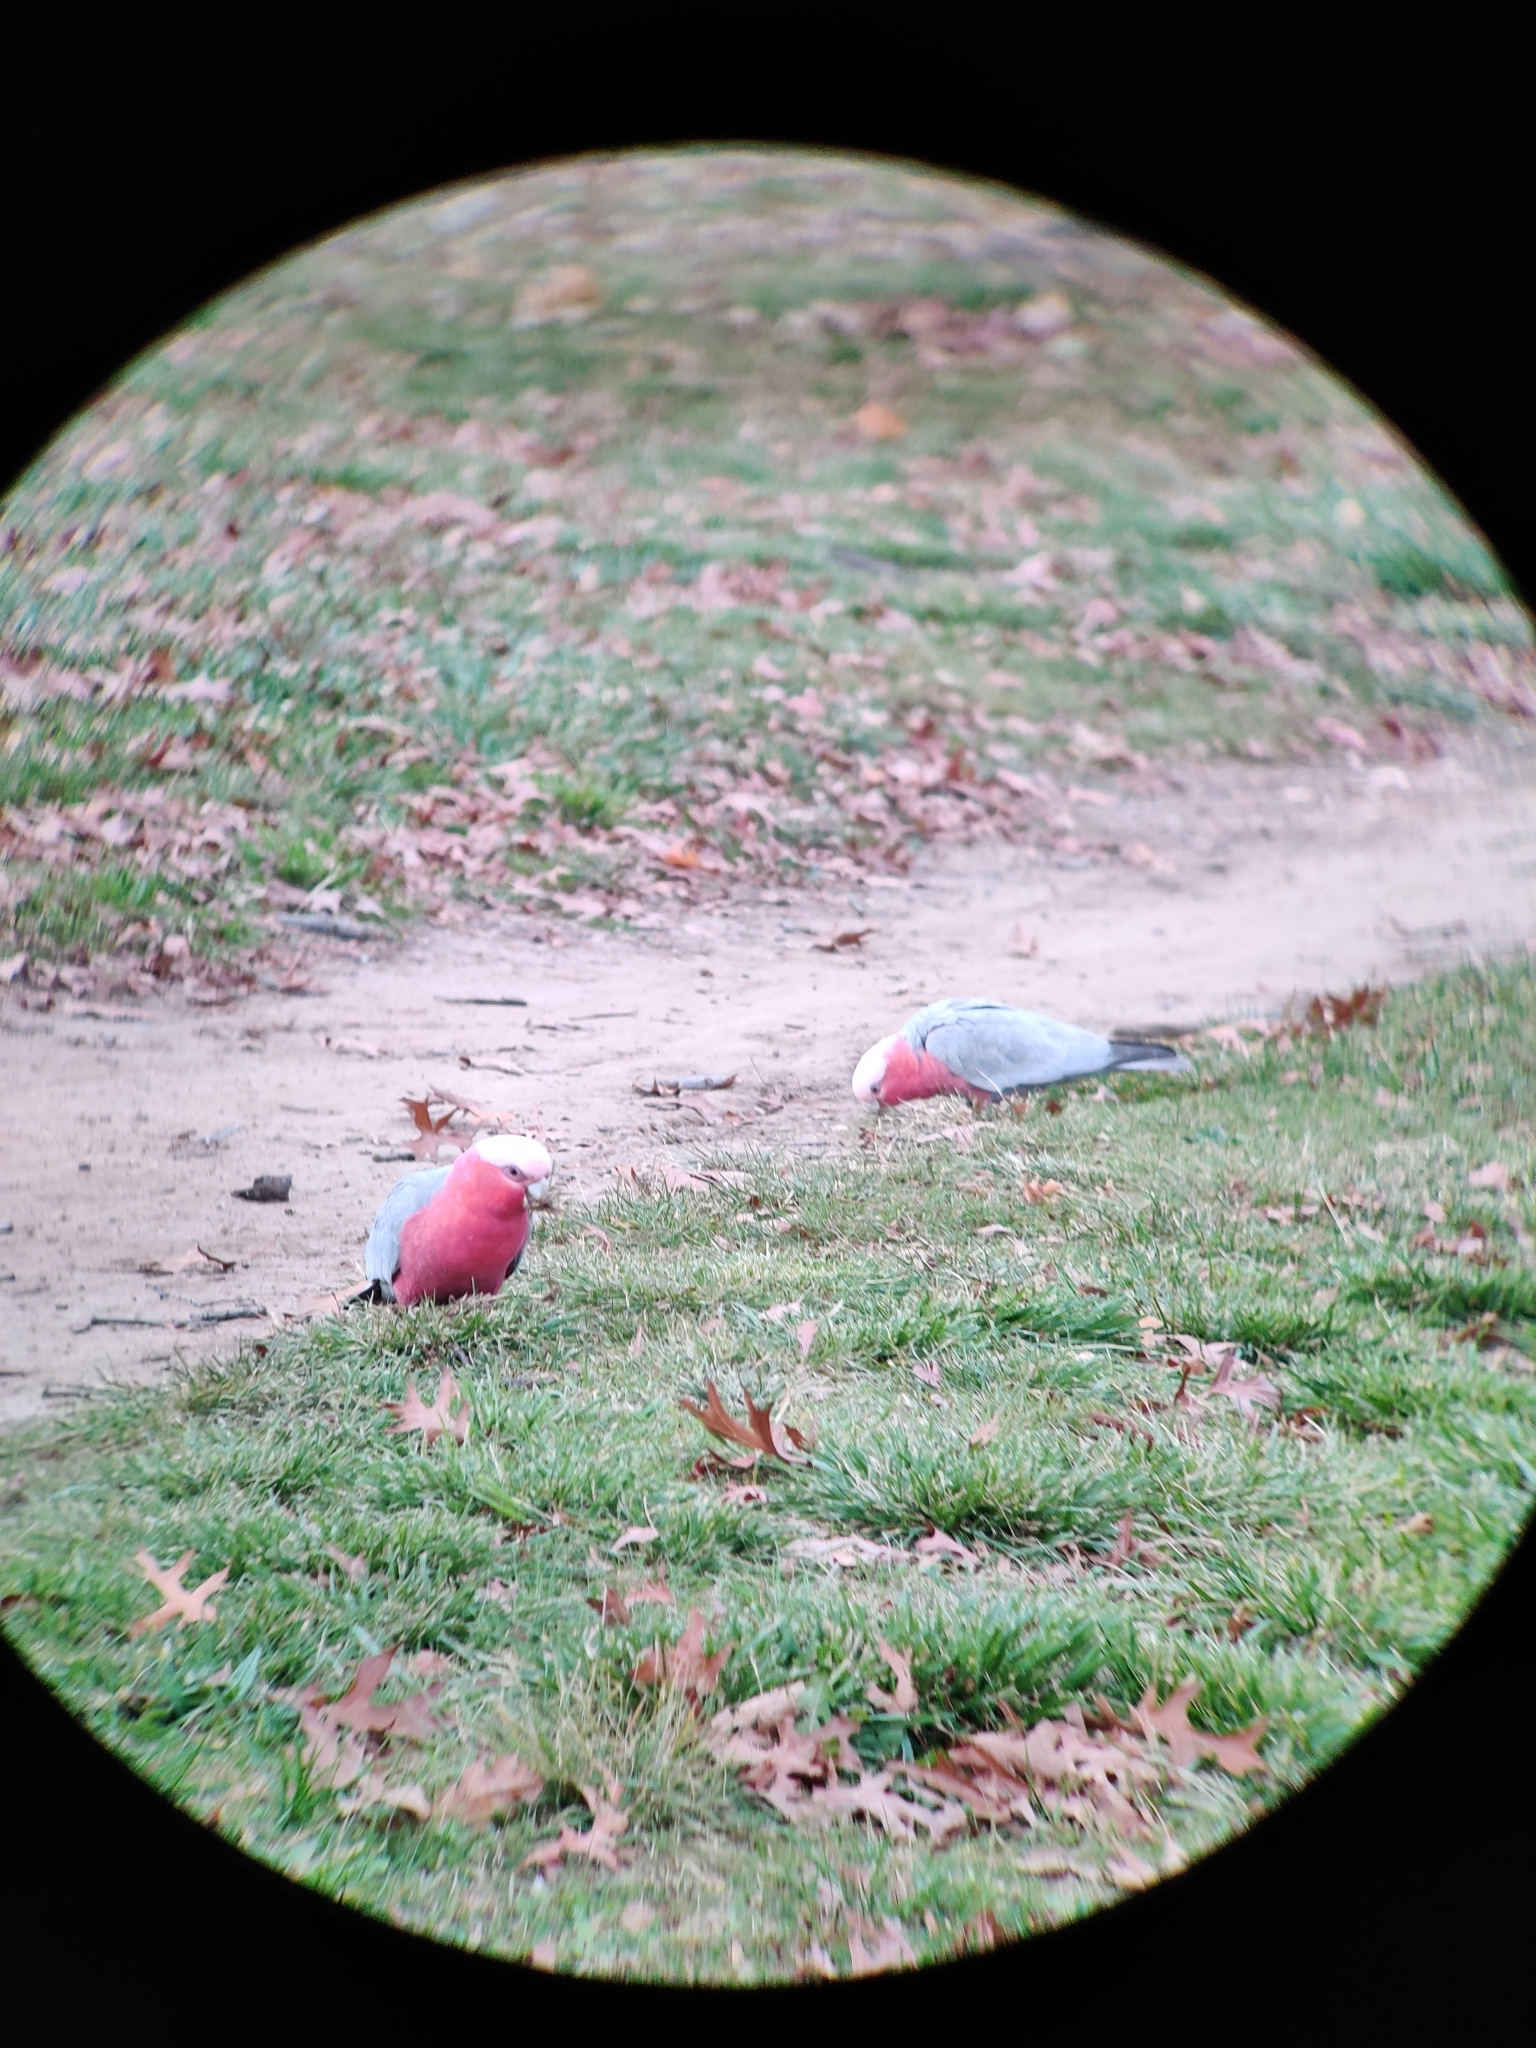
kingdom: Animalia
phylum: Chordata
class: Aves
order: Psittaciformes
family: Psittacidae
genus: Eolophus
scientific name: Eolophus roseicapilla
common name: Galah
